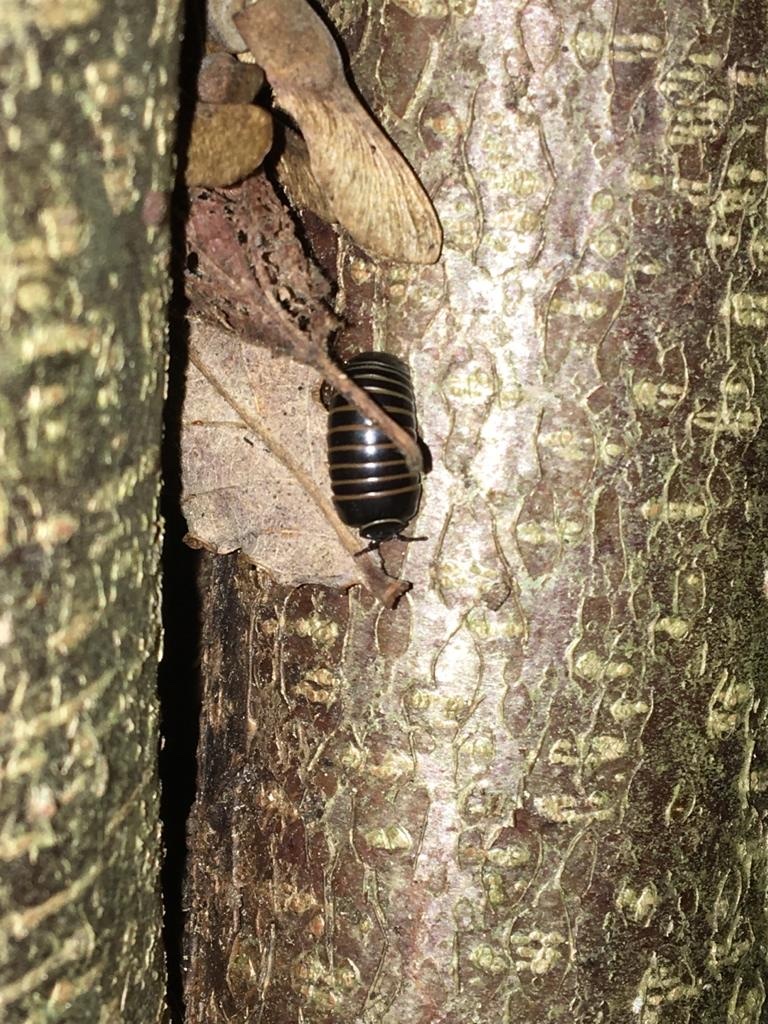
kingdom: Animalia
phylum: Arthropoda
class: Diplopoda
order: Glomerida
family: Glomeridae
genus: Glomeris
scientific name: Glomeris marginata
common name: Bordered pill millipede
